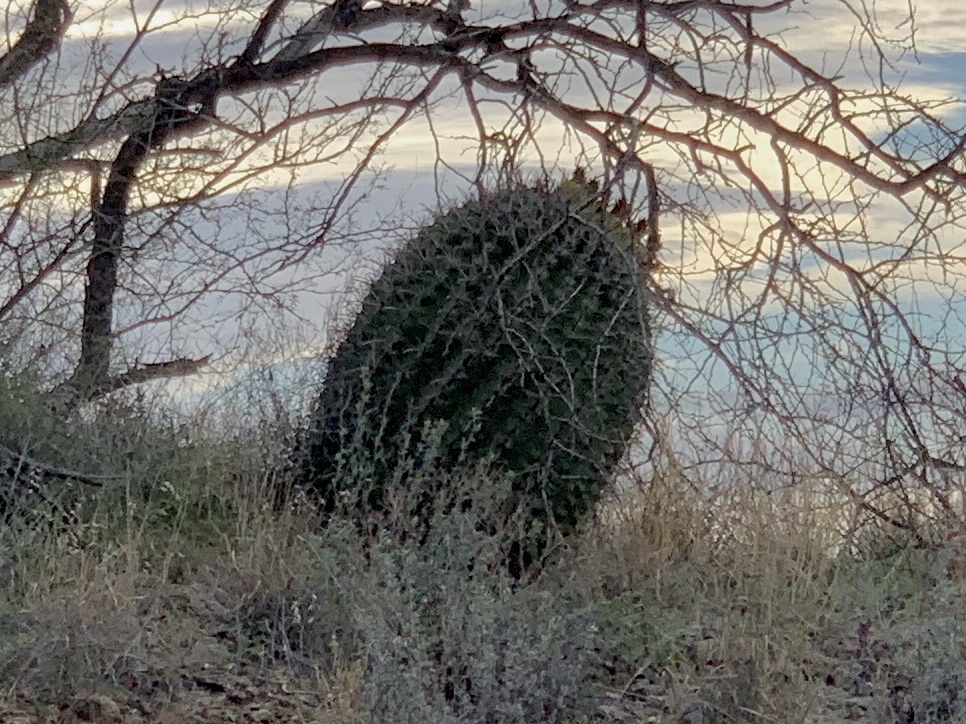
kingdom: Plantae
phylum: Tracheophyta
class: Magnoliopsida
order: Caryophyllales
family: Cactaceae
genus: Ferocactus
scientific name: Ferocactus wislizeni
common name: Candy barrel cactus
